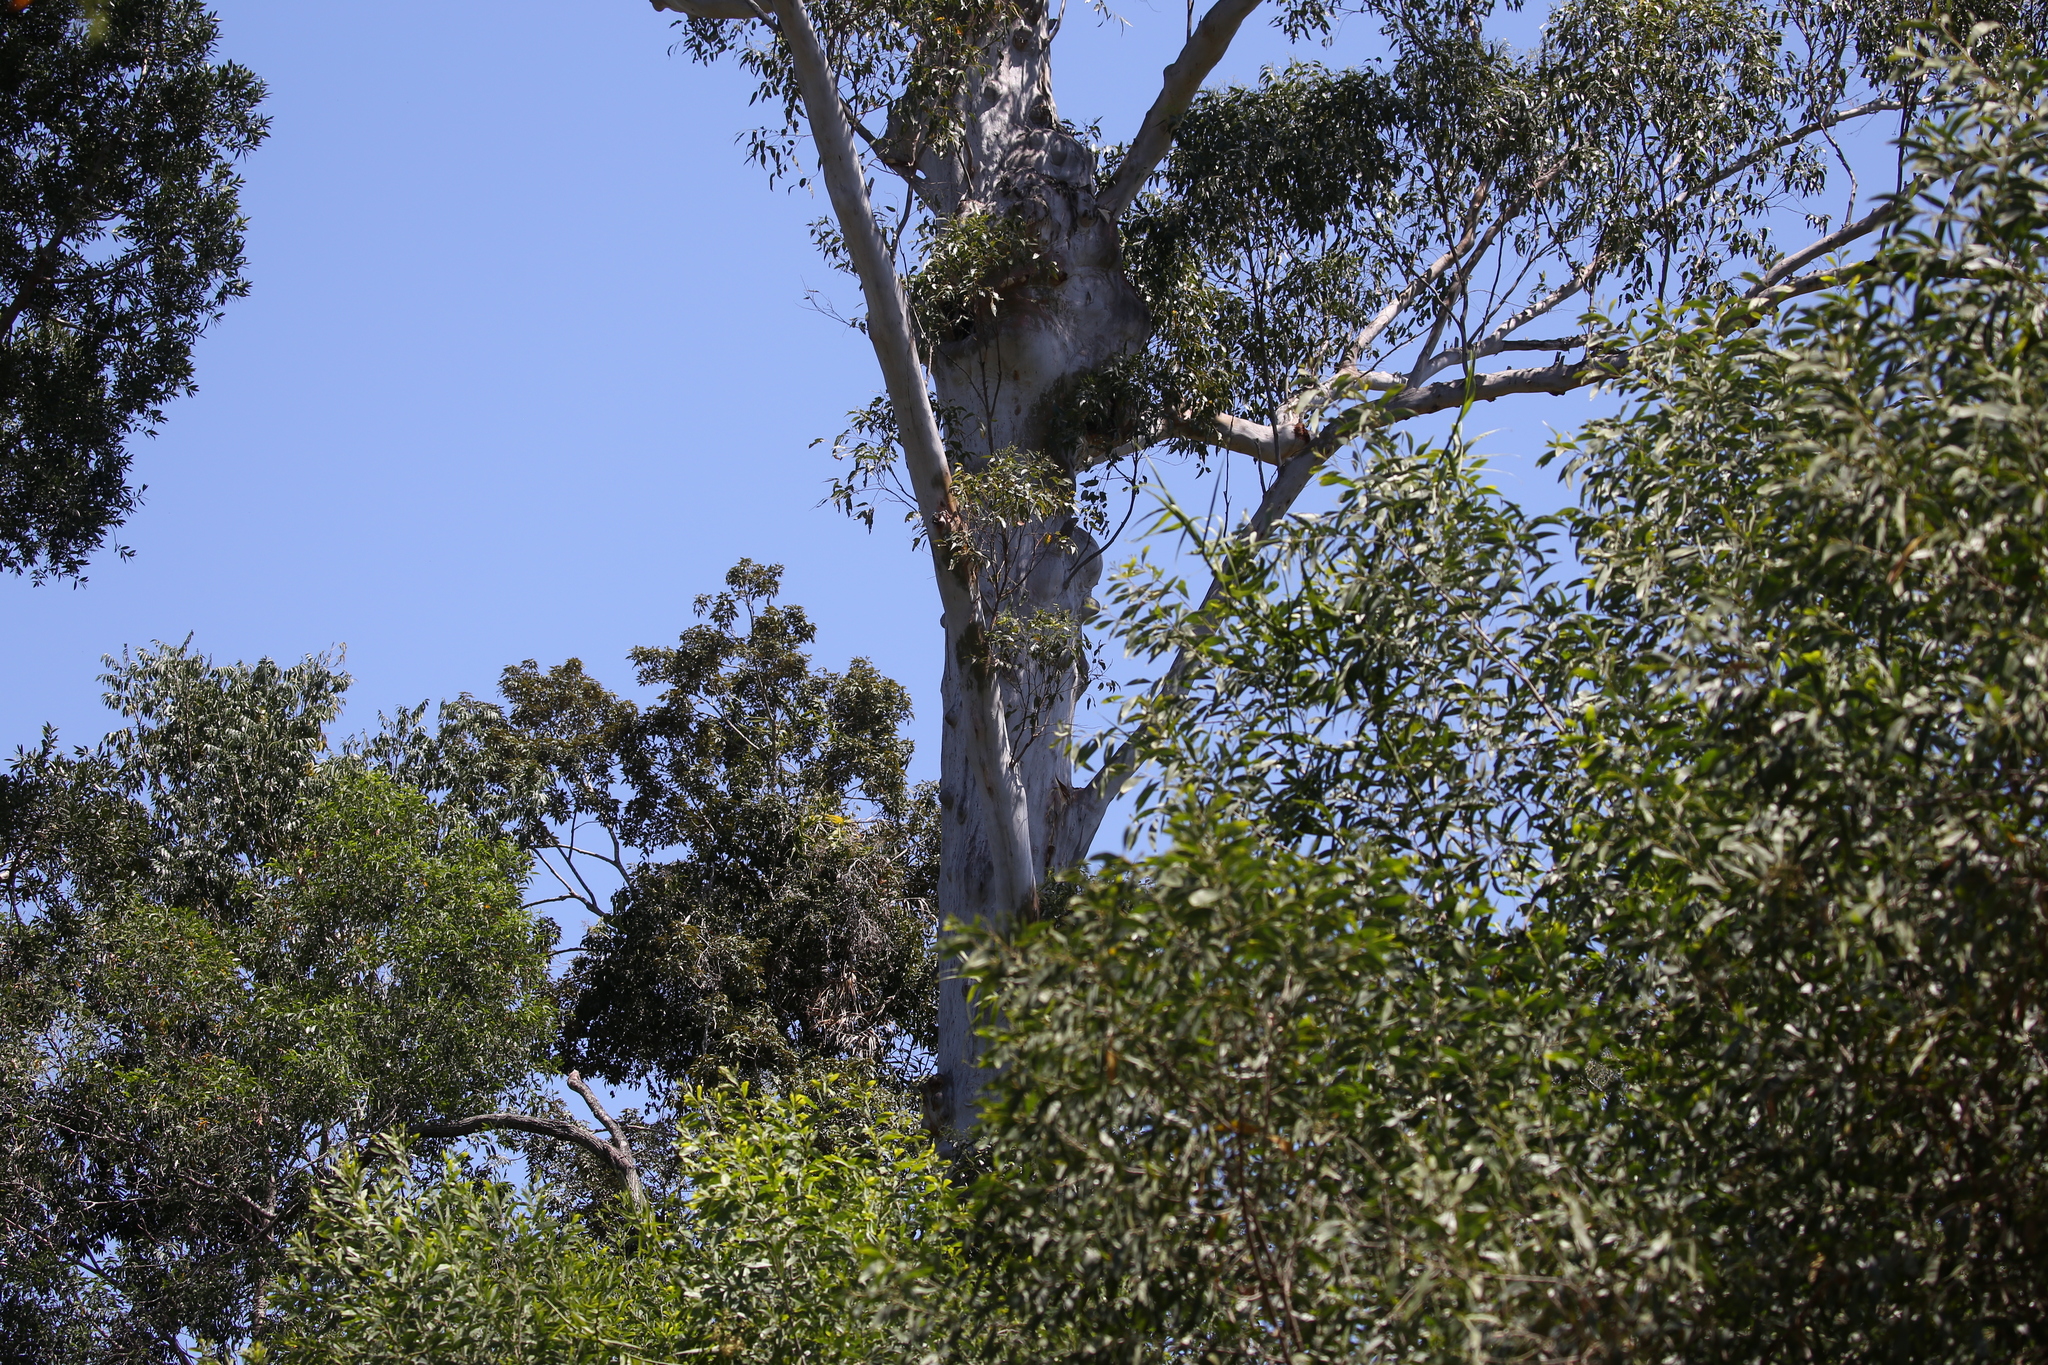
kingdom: Plantae
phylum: Tracheophyta
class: Magnoliopsida
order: Myrtales
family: Myrtaceae
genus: Eucalyptus
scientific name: Eucalyptus tereticornis
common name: Forest redgum
